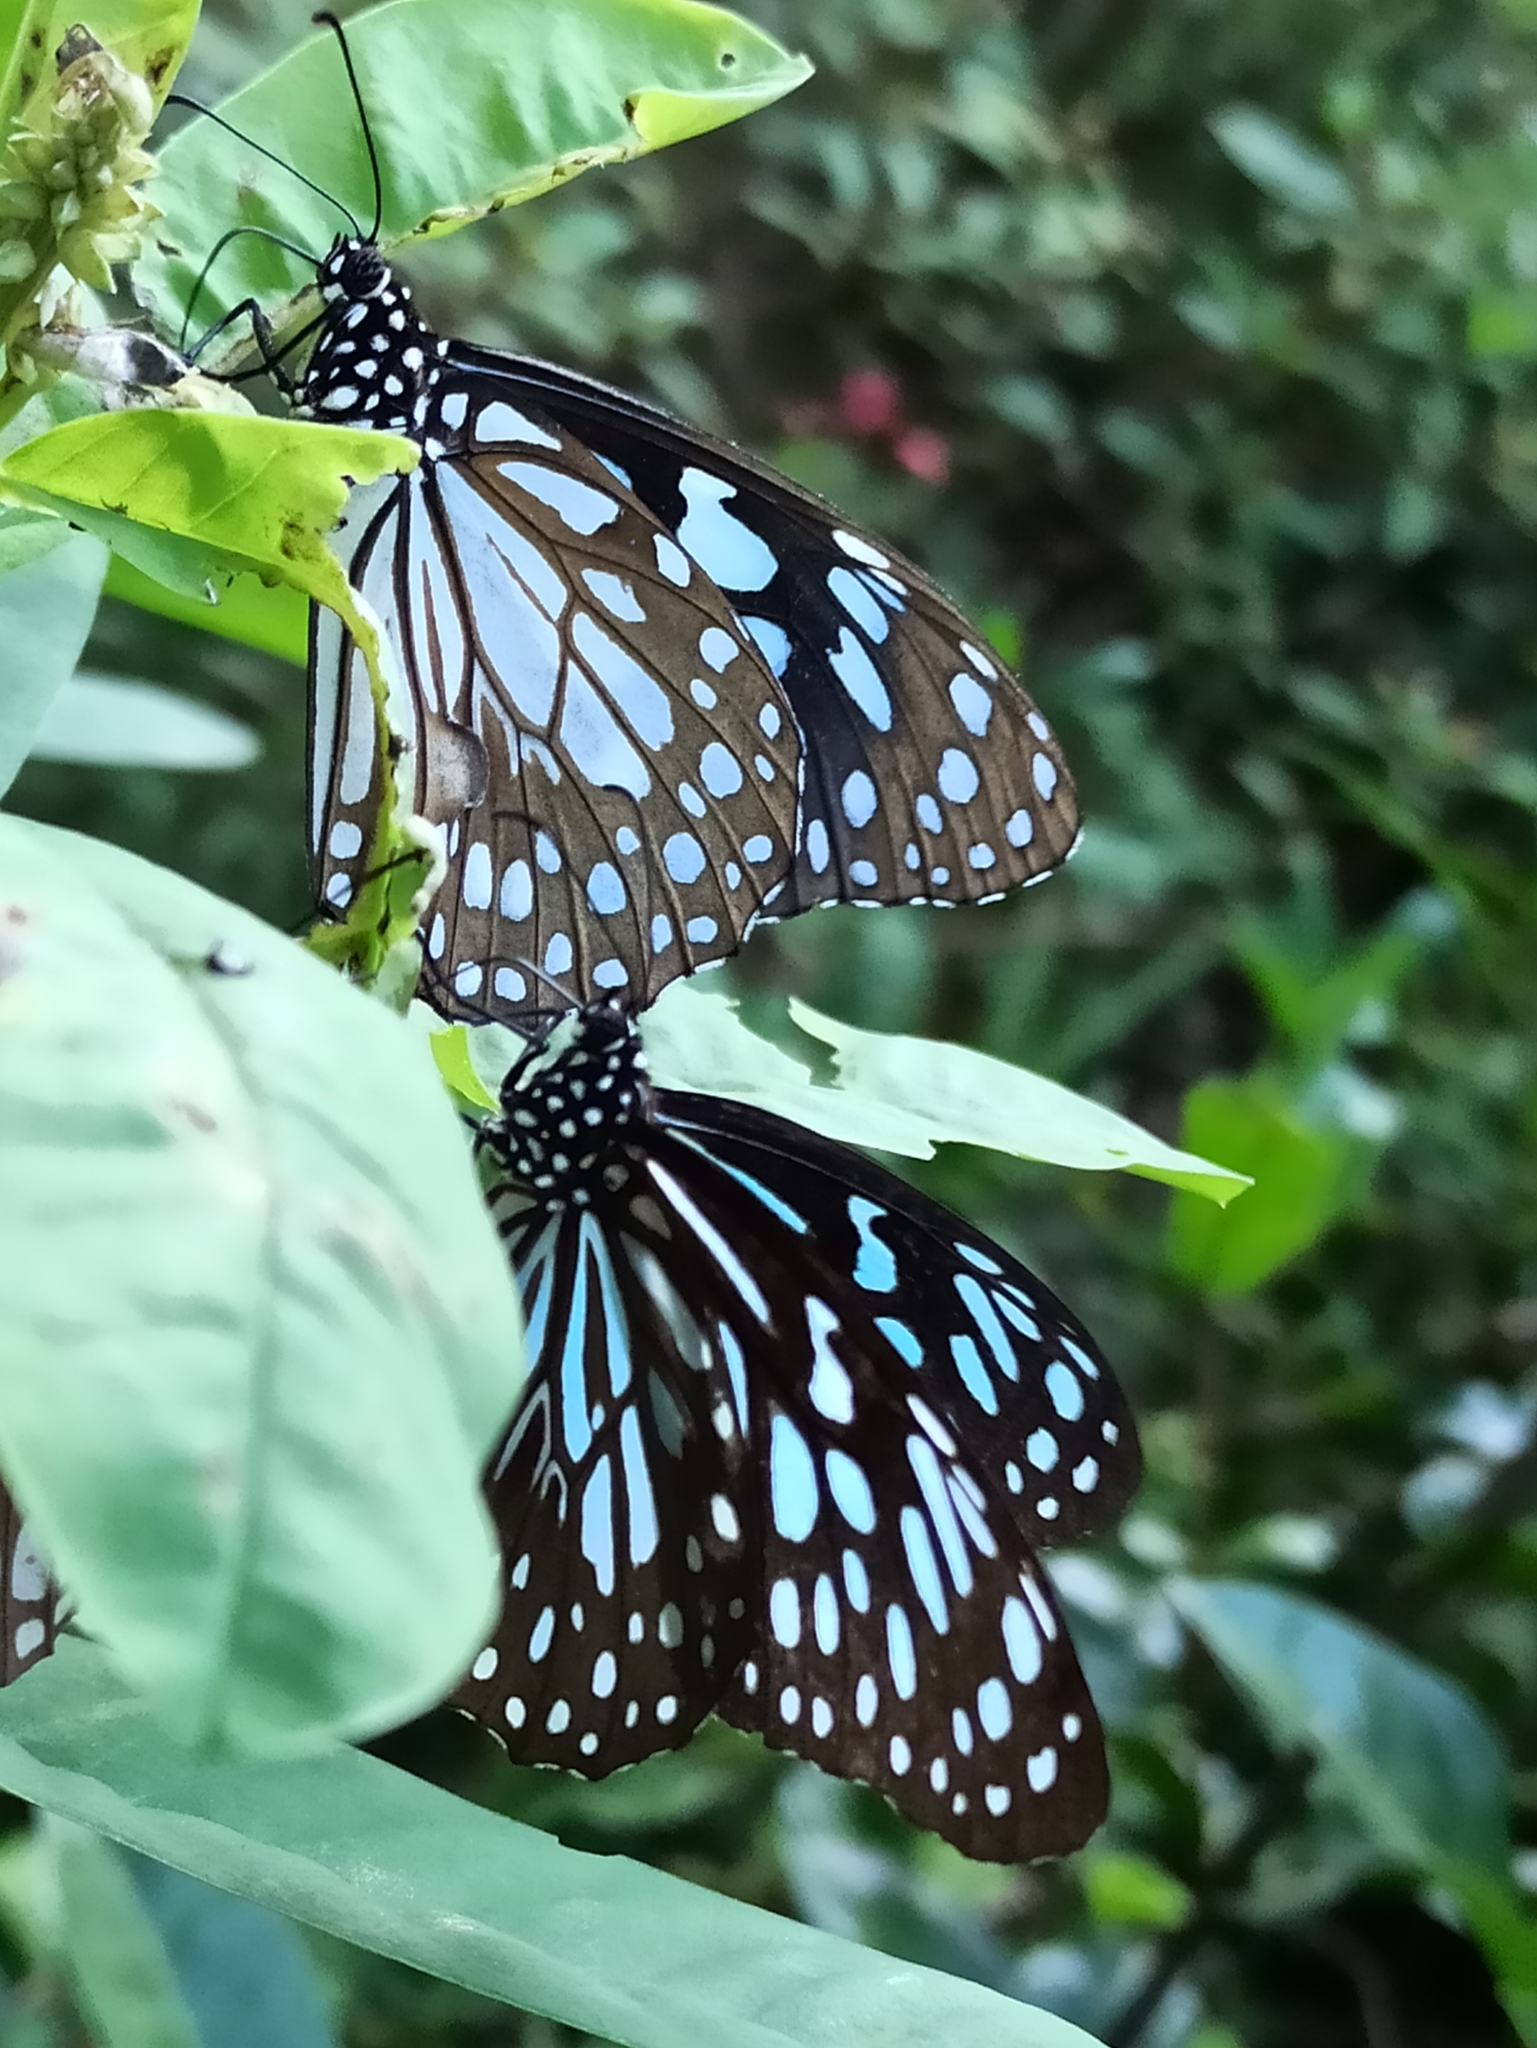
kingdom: Animalia
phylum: Arthropoda
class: Insecta
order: Lepidoptera
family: Nymphalidae
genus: Tirumala
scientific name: Tirumala limniace
